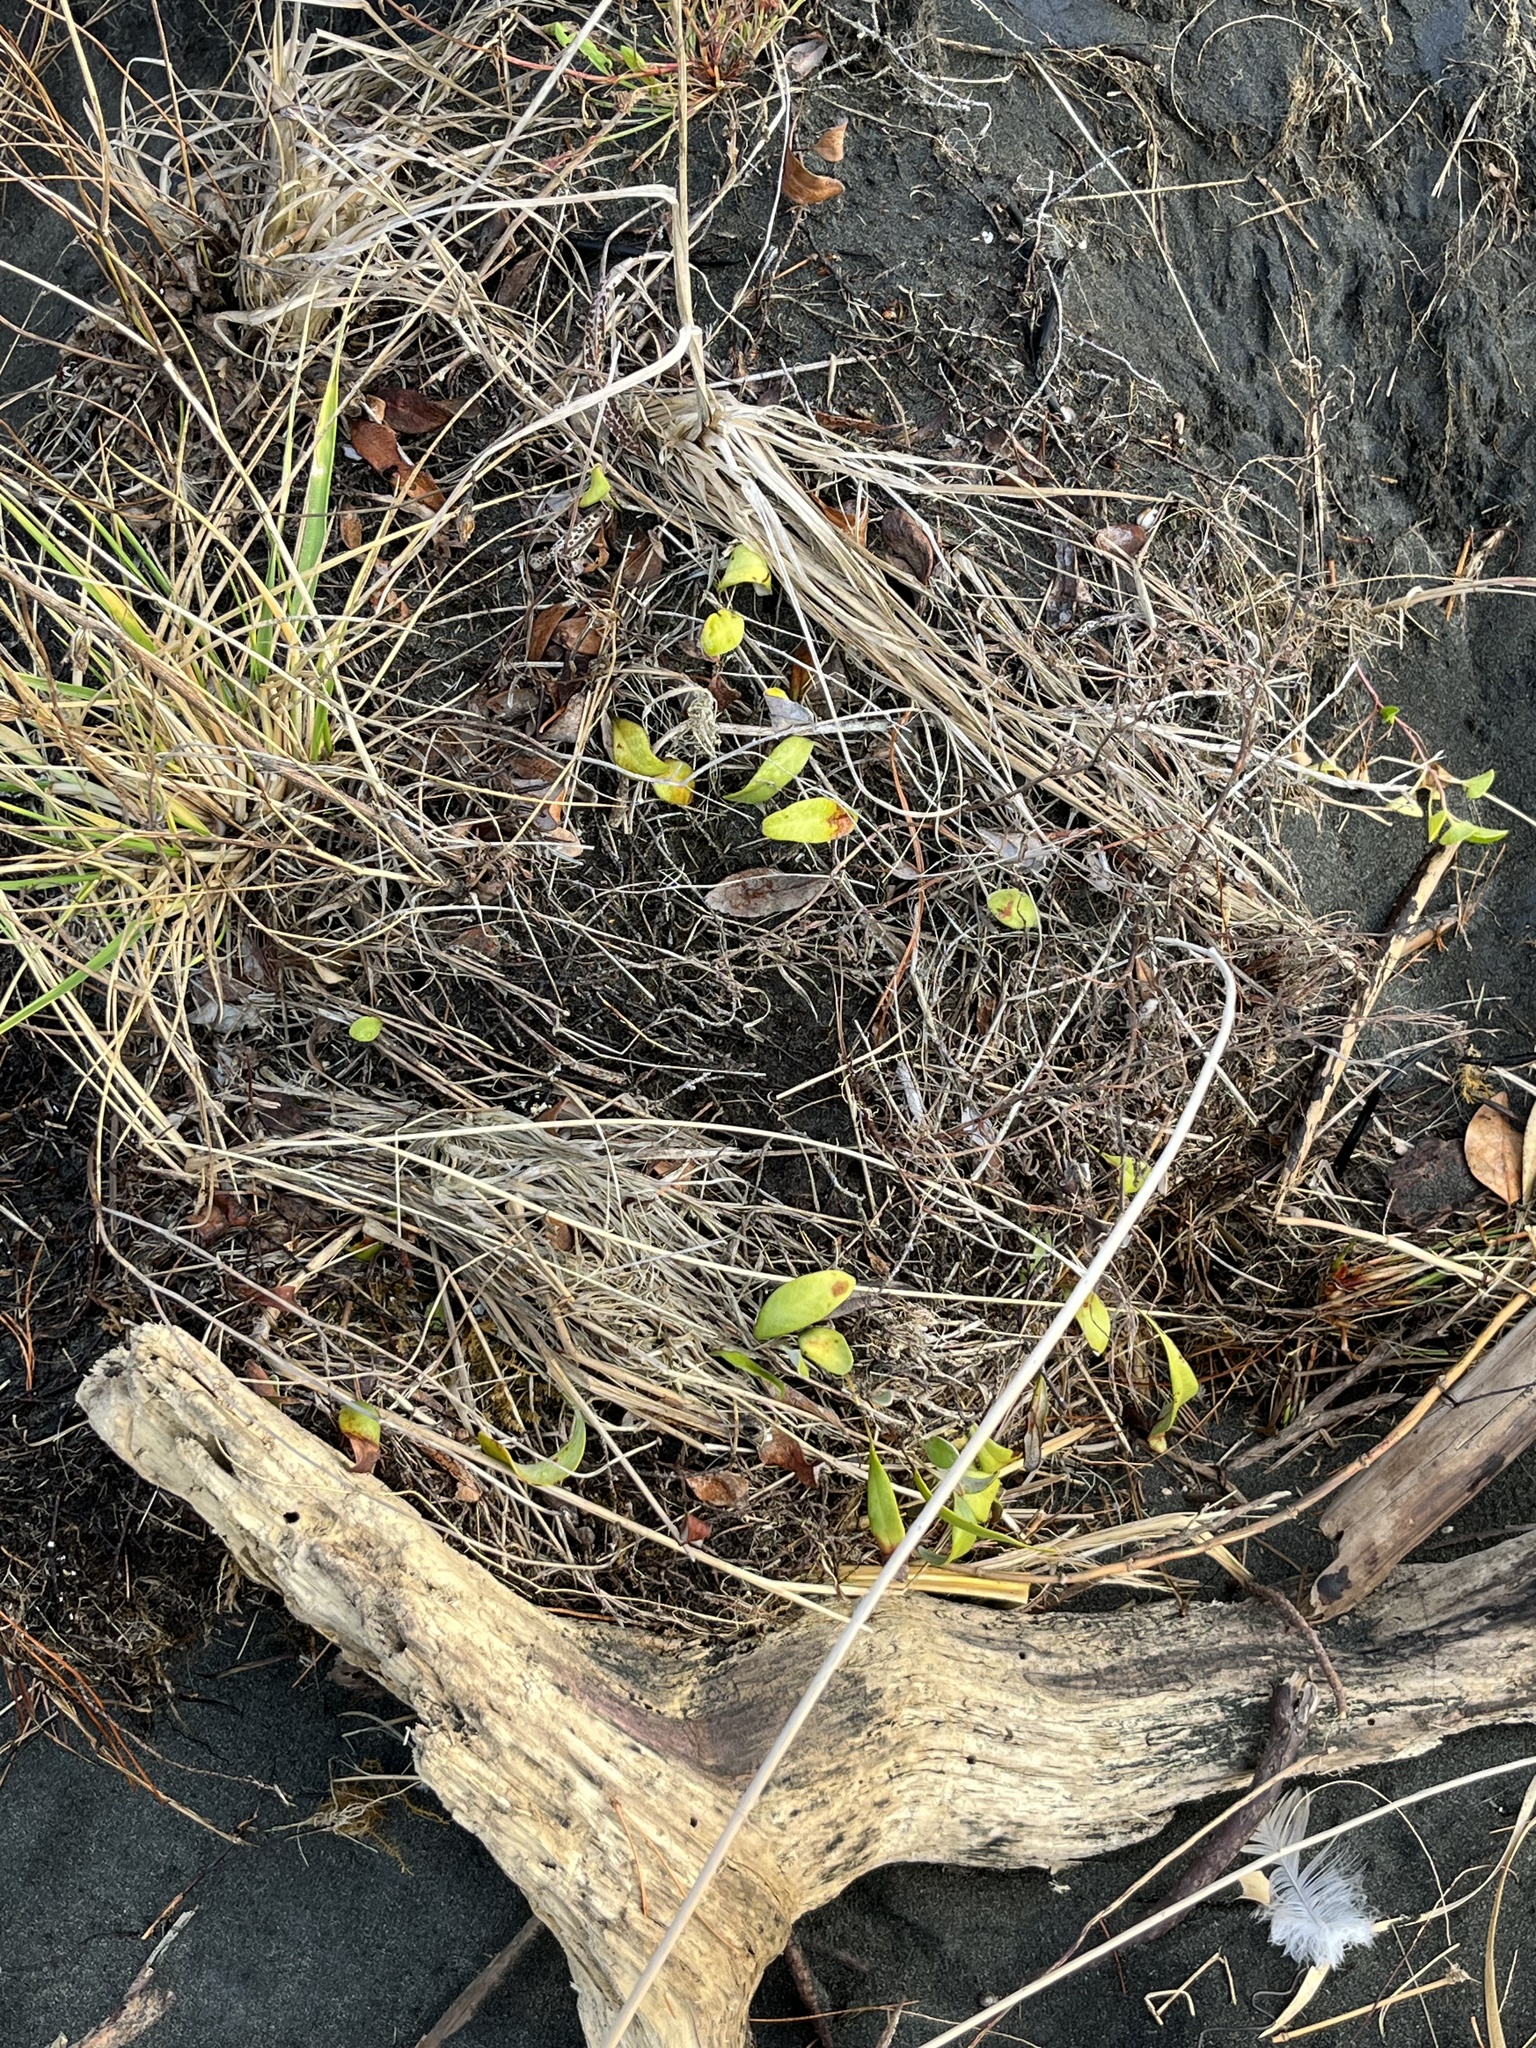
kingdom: Plantae
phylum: Tracheophyta
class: Polypodiopsida
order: Polypodiales
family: Polypodiaceae
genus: Pyrrosia
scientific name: Pyrrosia eleagnifolia
